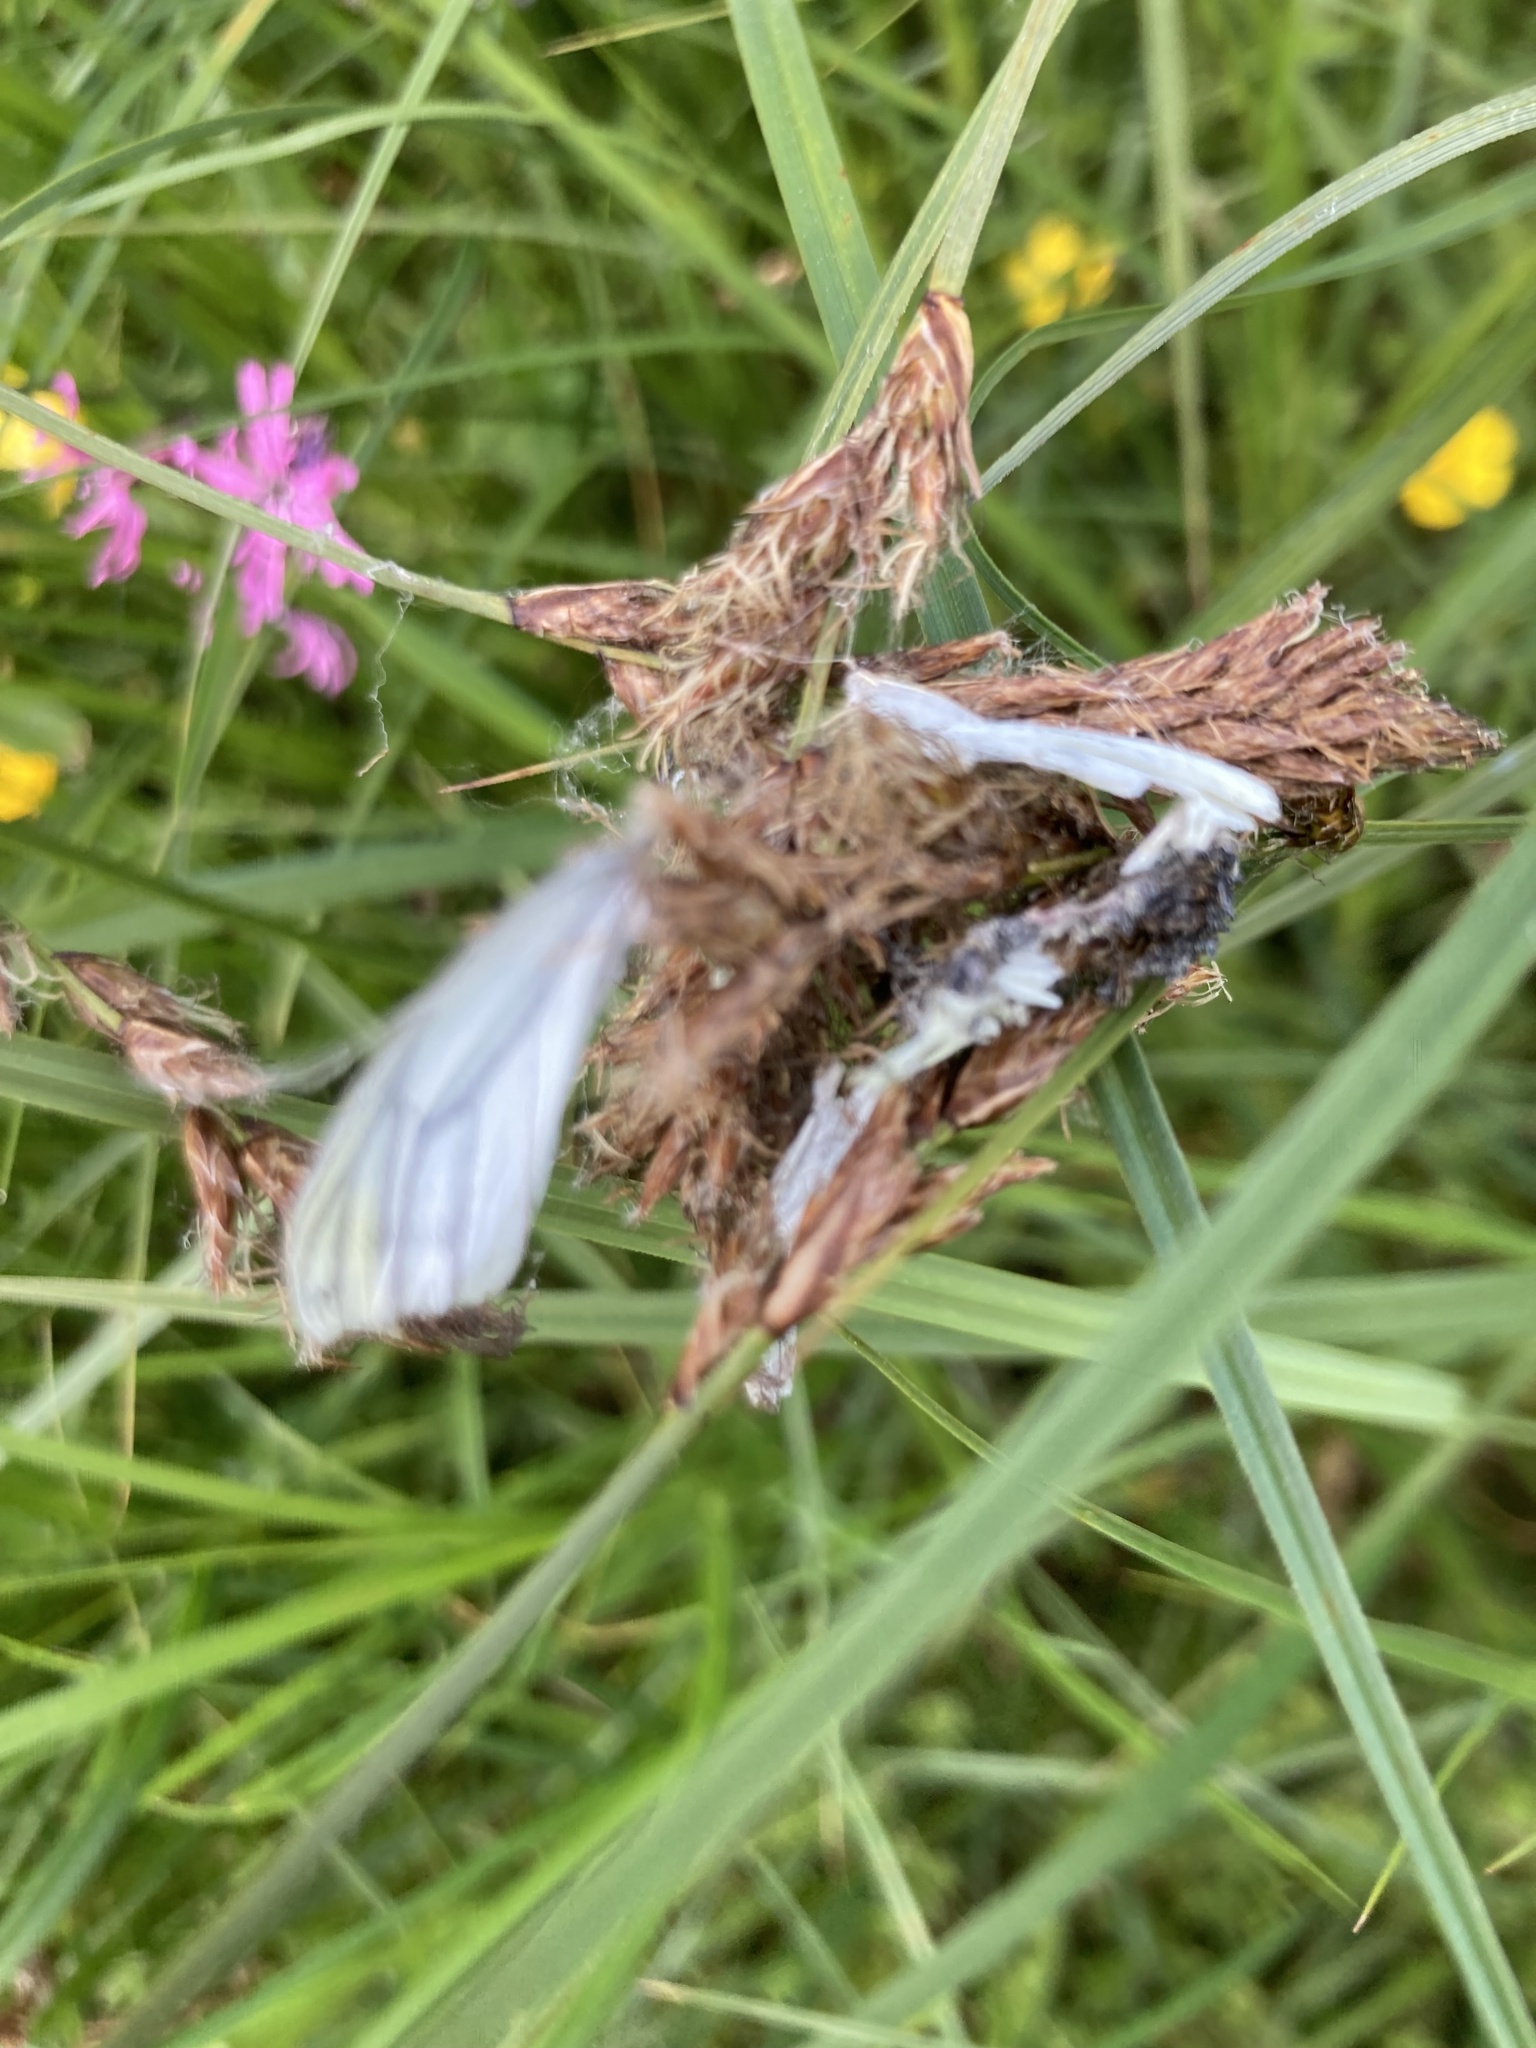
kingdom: Animalia
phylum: Arthropoda
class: Insecta
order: Lepidoptera
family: Pieridae
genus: Pieris
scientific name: Pieris napi
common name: Green-veined white
